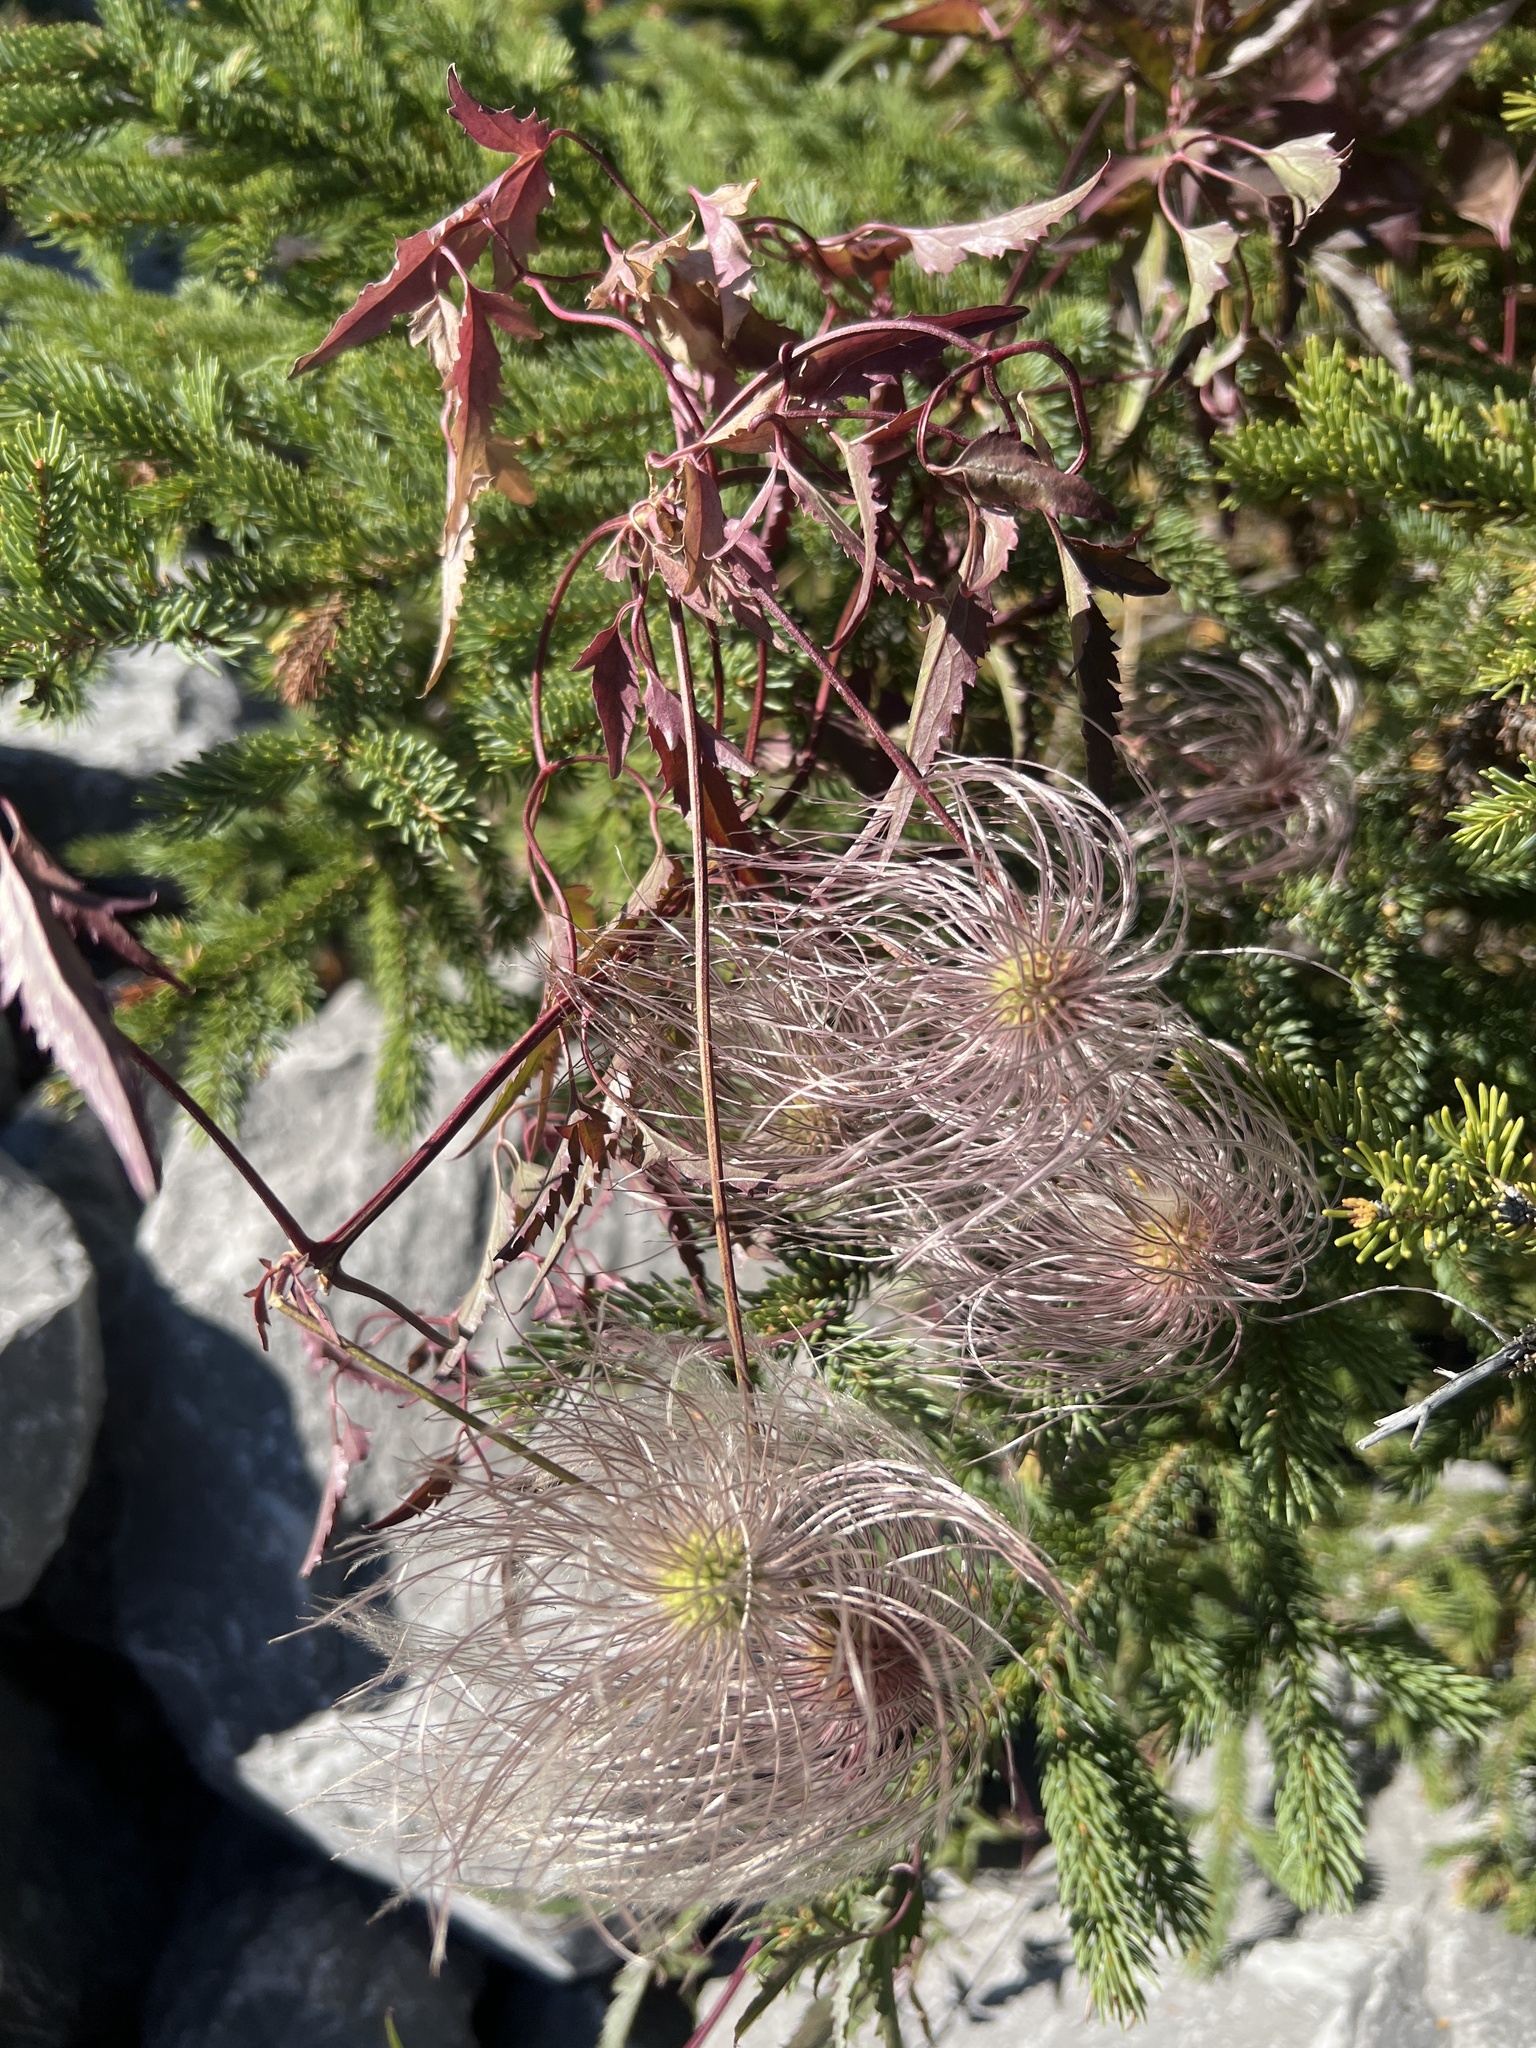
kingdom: Plantae
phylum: Tracheophyta
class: Magnoliopsida
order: Ranunculales
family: Ranunculaceae
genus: Clematis
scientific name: Clematis tangutica
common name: Orange-peel clematis
